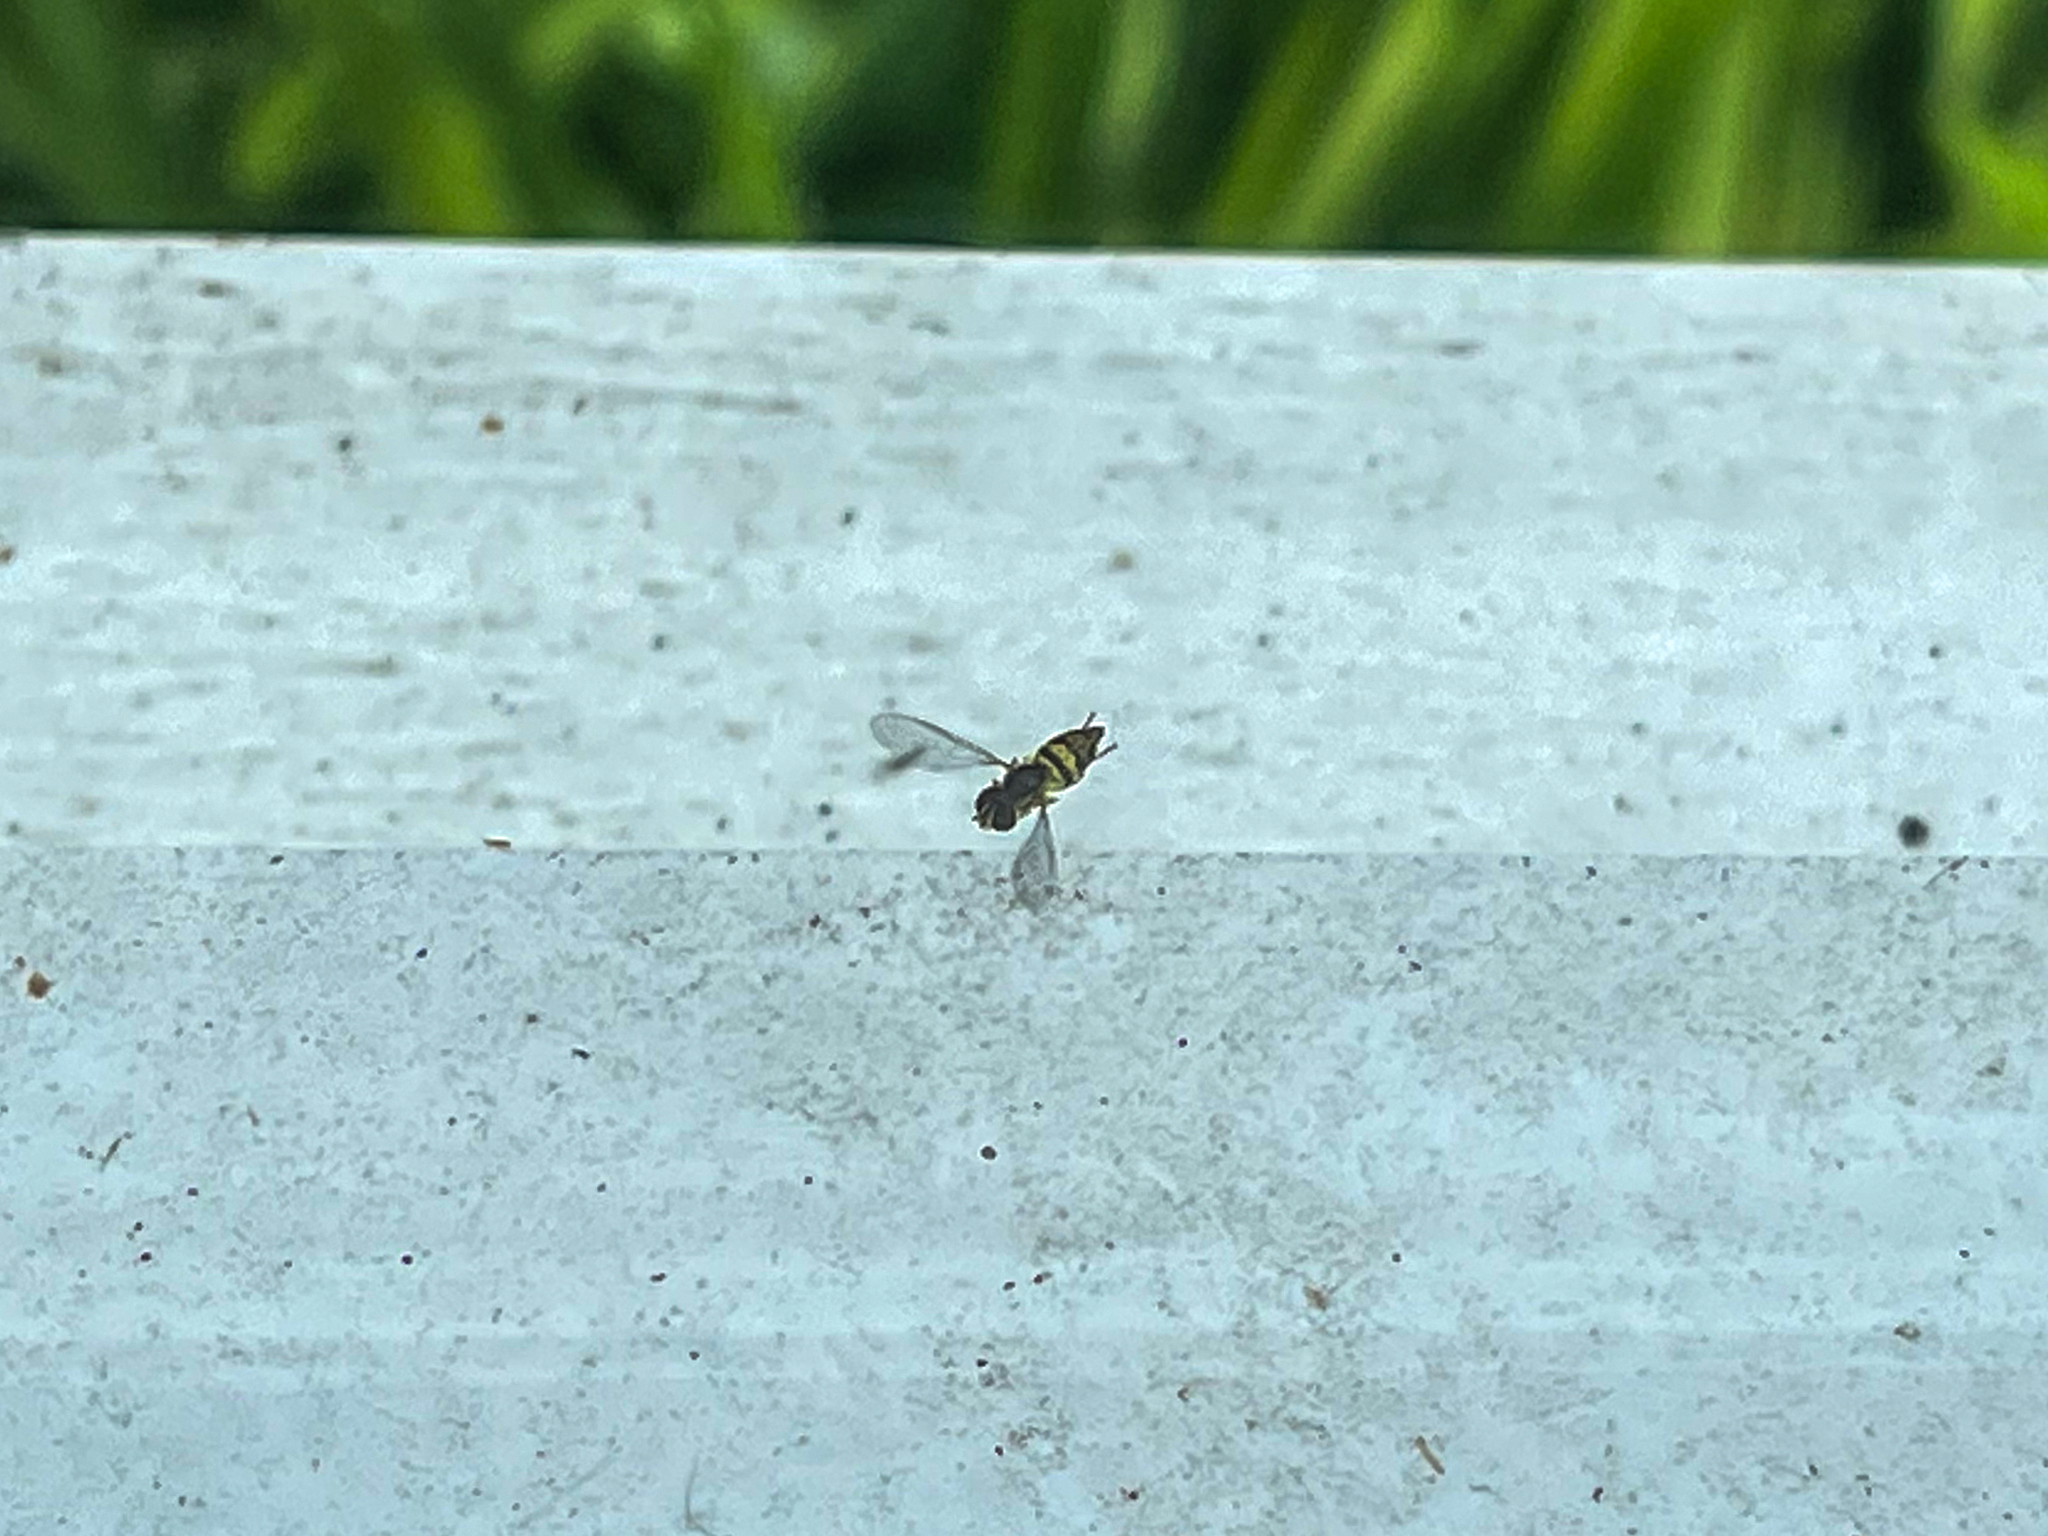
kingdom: Animalia
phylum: Arthropoda
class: Insecta
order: Diptera
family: Syrphidae
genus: Toxomerus
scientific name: Toxomerus geminatus
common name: Eastern calligrapher
